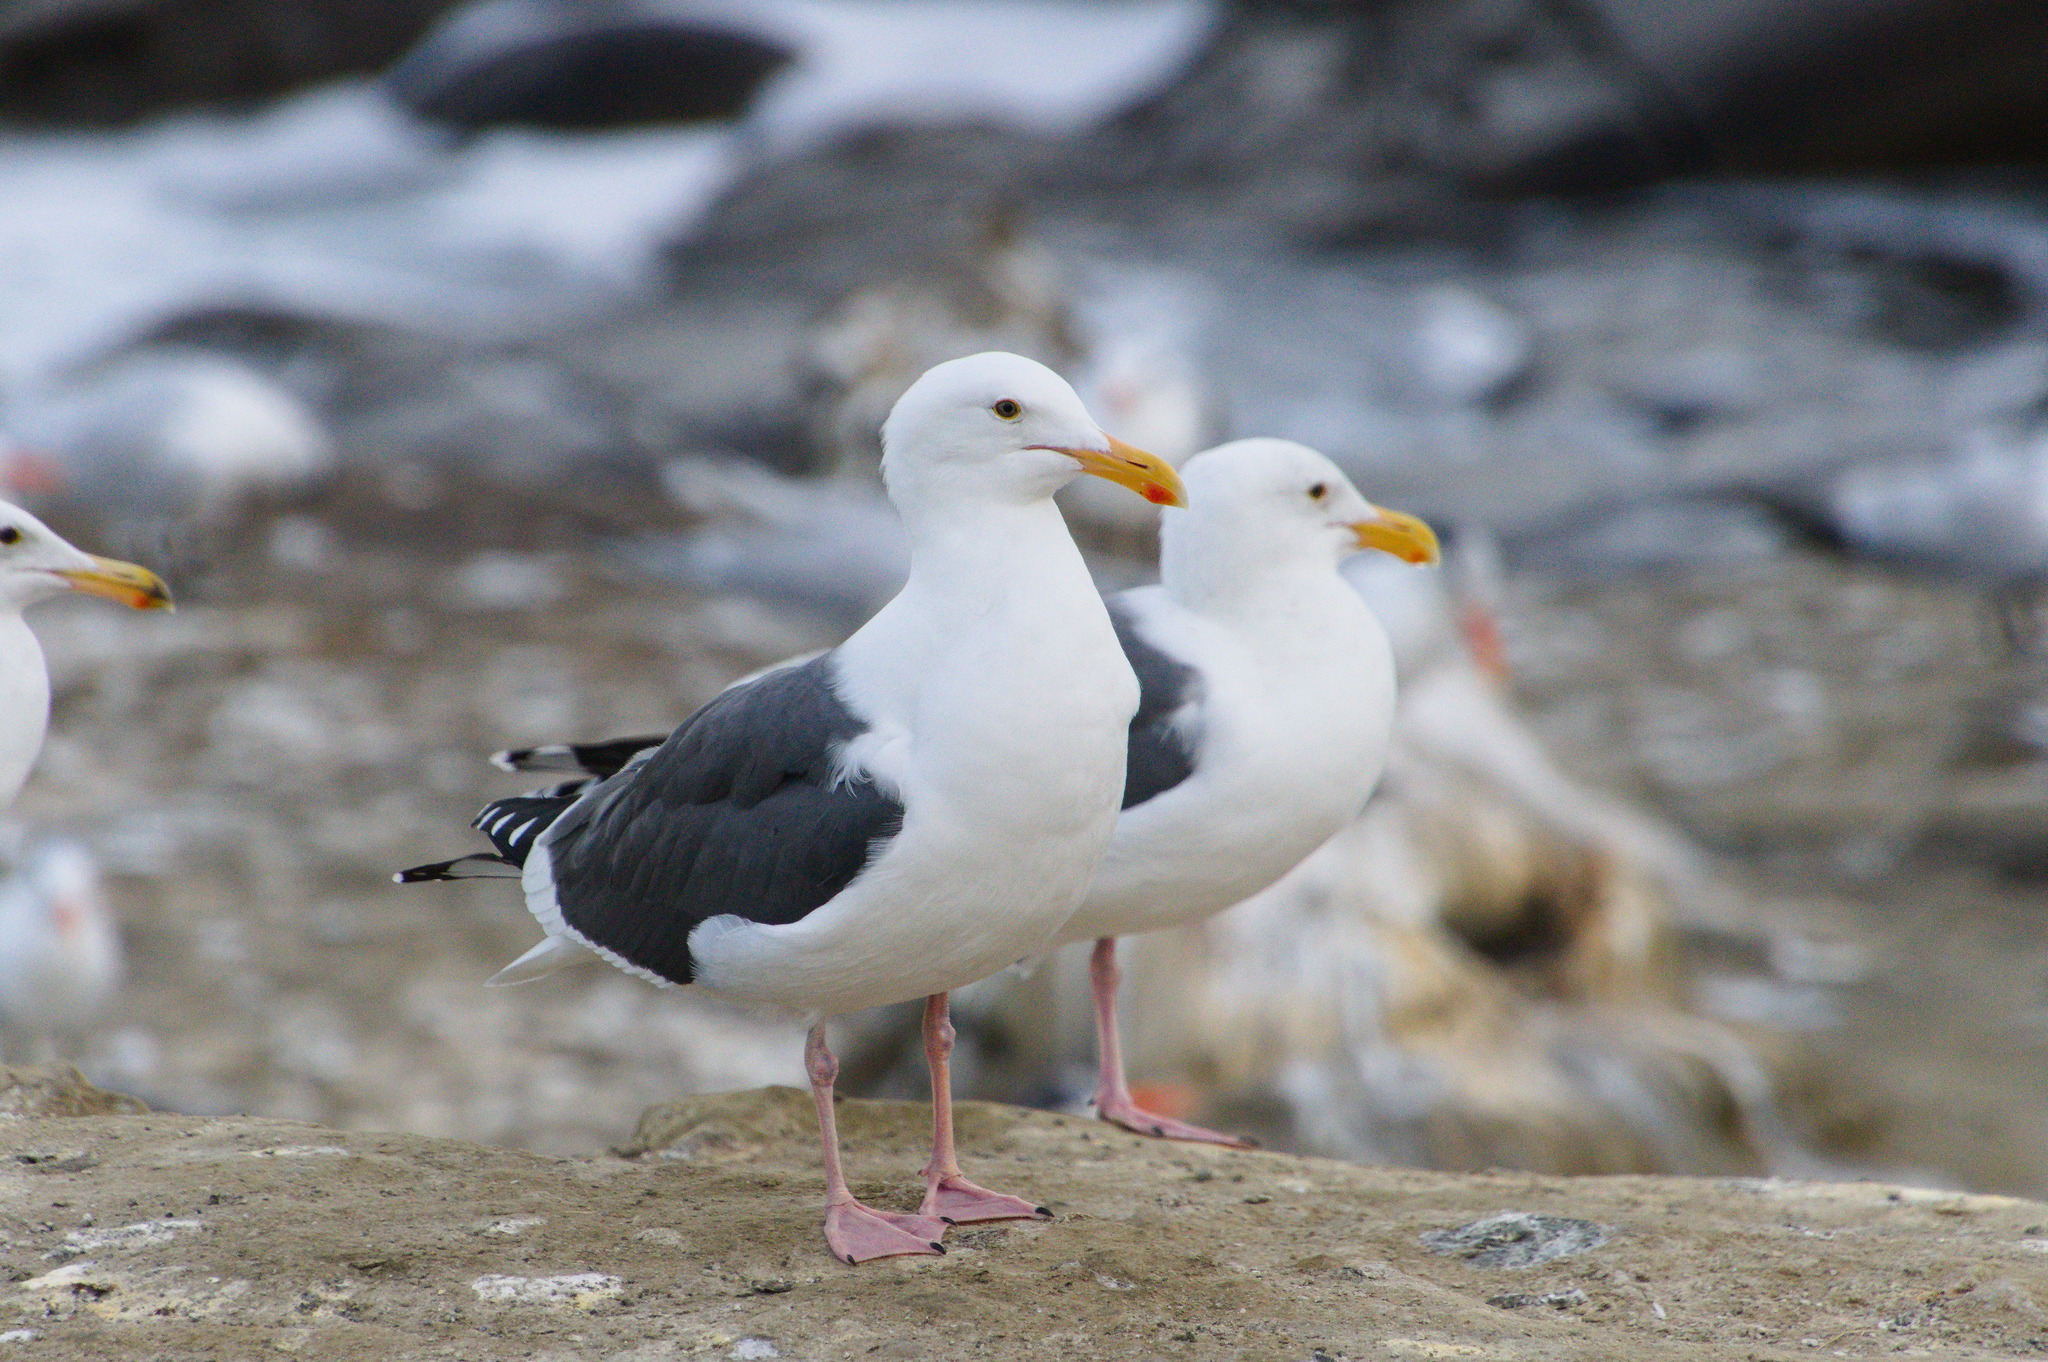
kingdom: Animalia
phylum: Chordata
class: Aves
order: Charadriiformes
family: Laridae
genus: Larus
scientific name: Larus occidentalis
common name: Western gull
